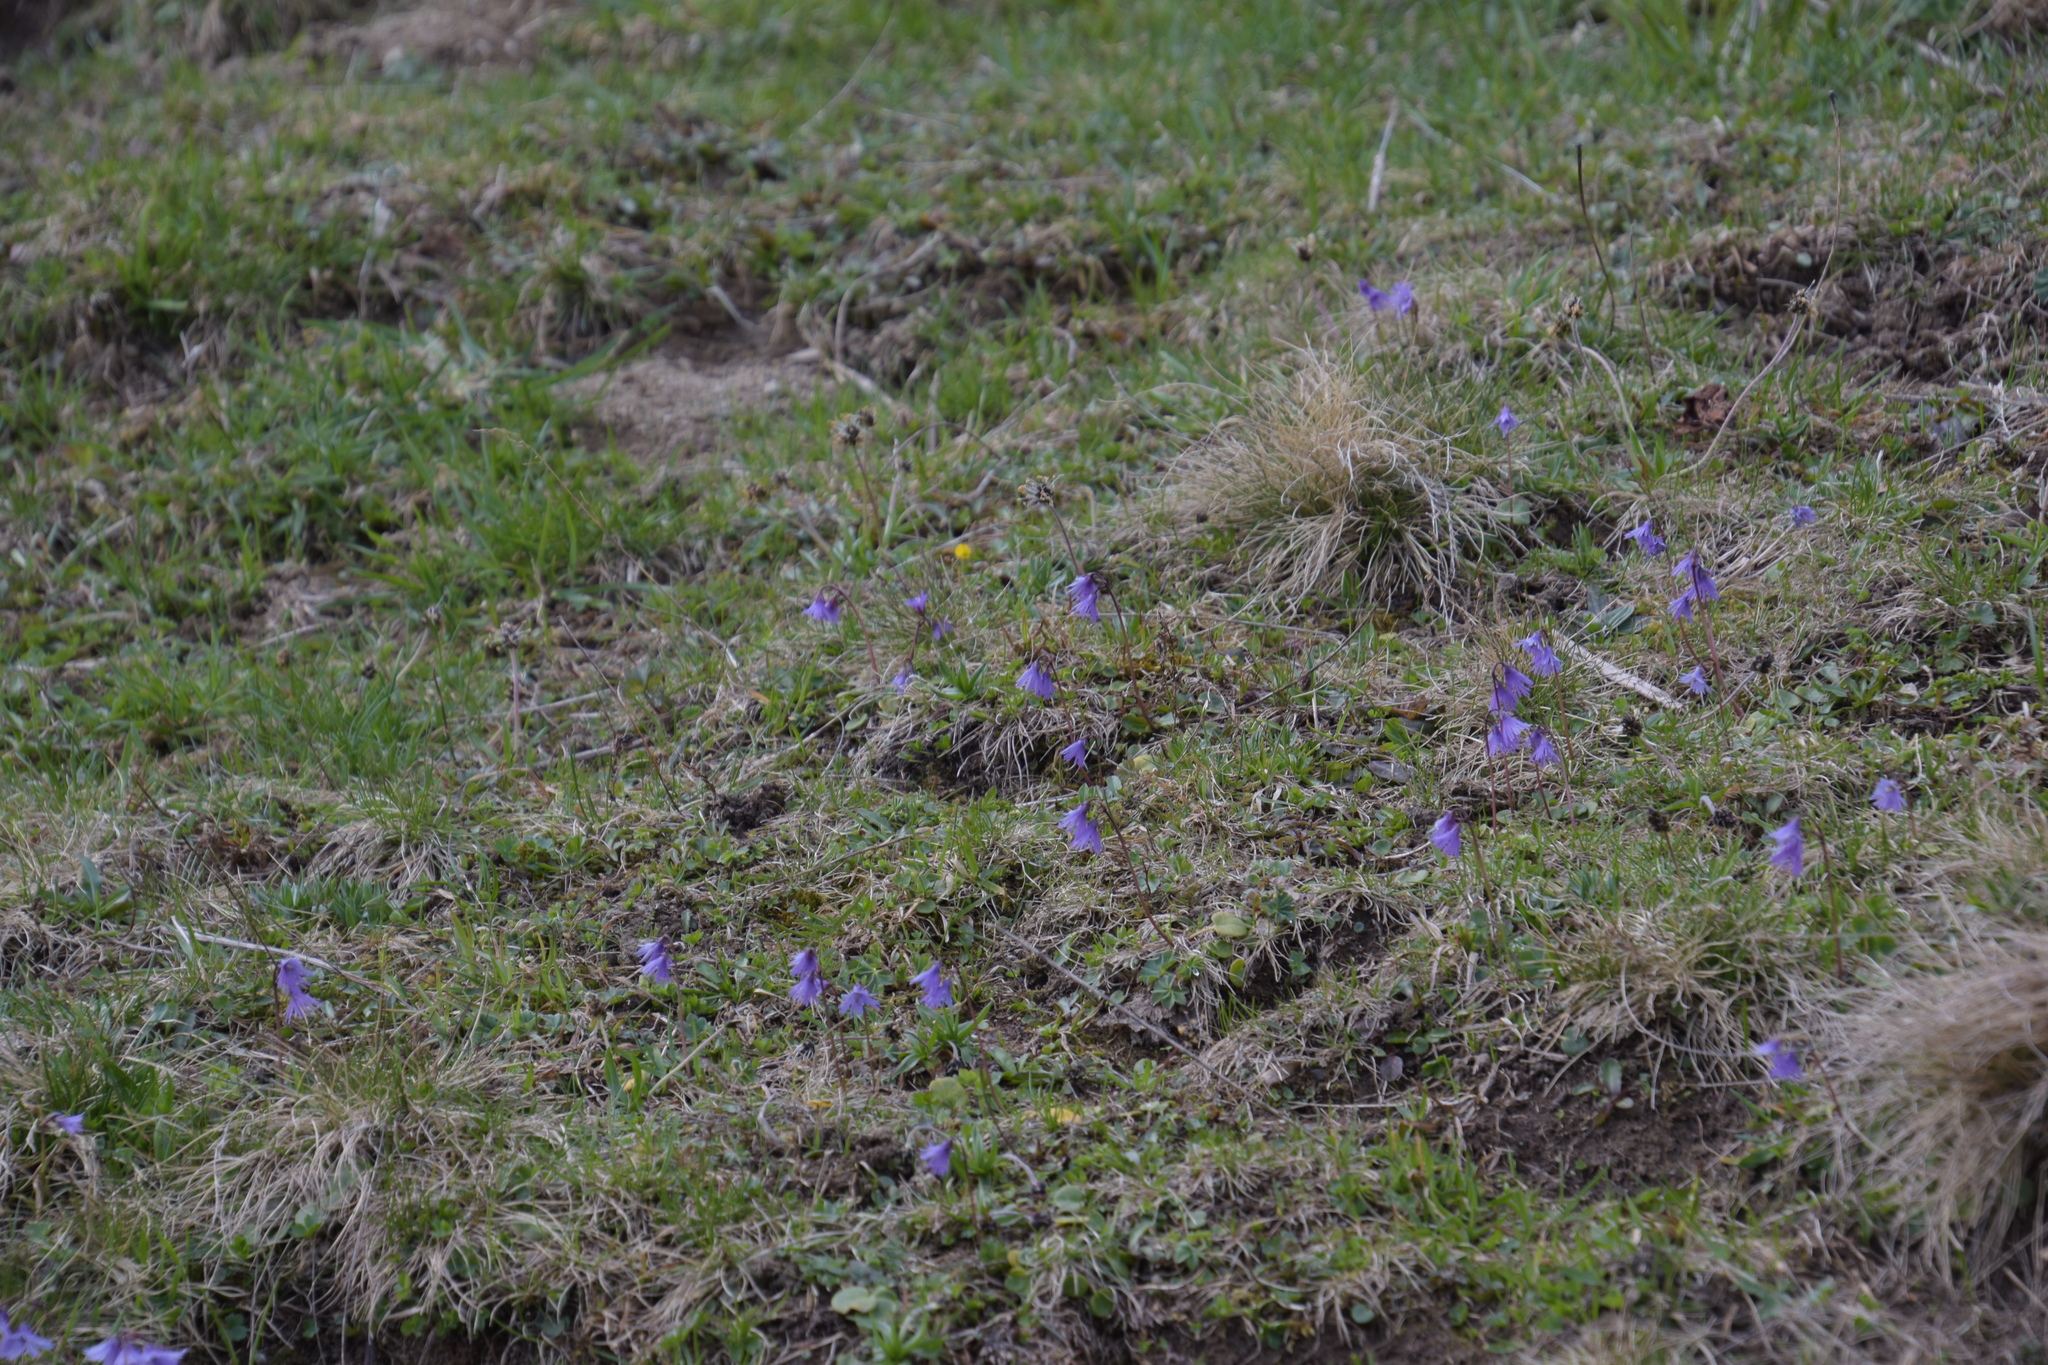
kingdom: Plantae
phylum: Tracheophyta
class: Magnoliopsida
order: Ericales
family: Primulaceae
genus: Soldanella
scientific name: Soldanella alpina
